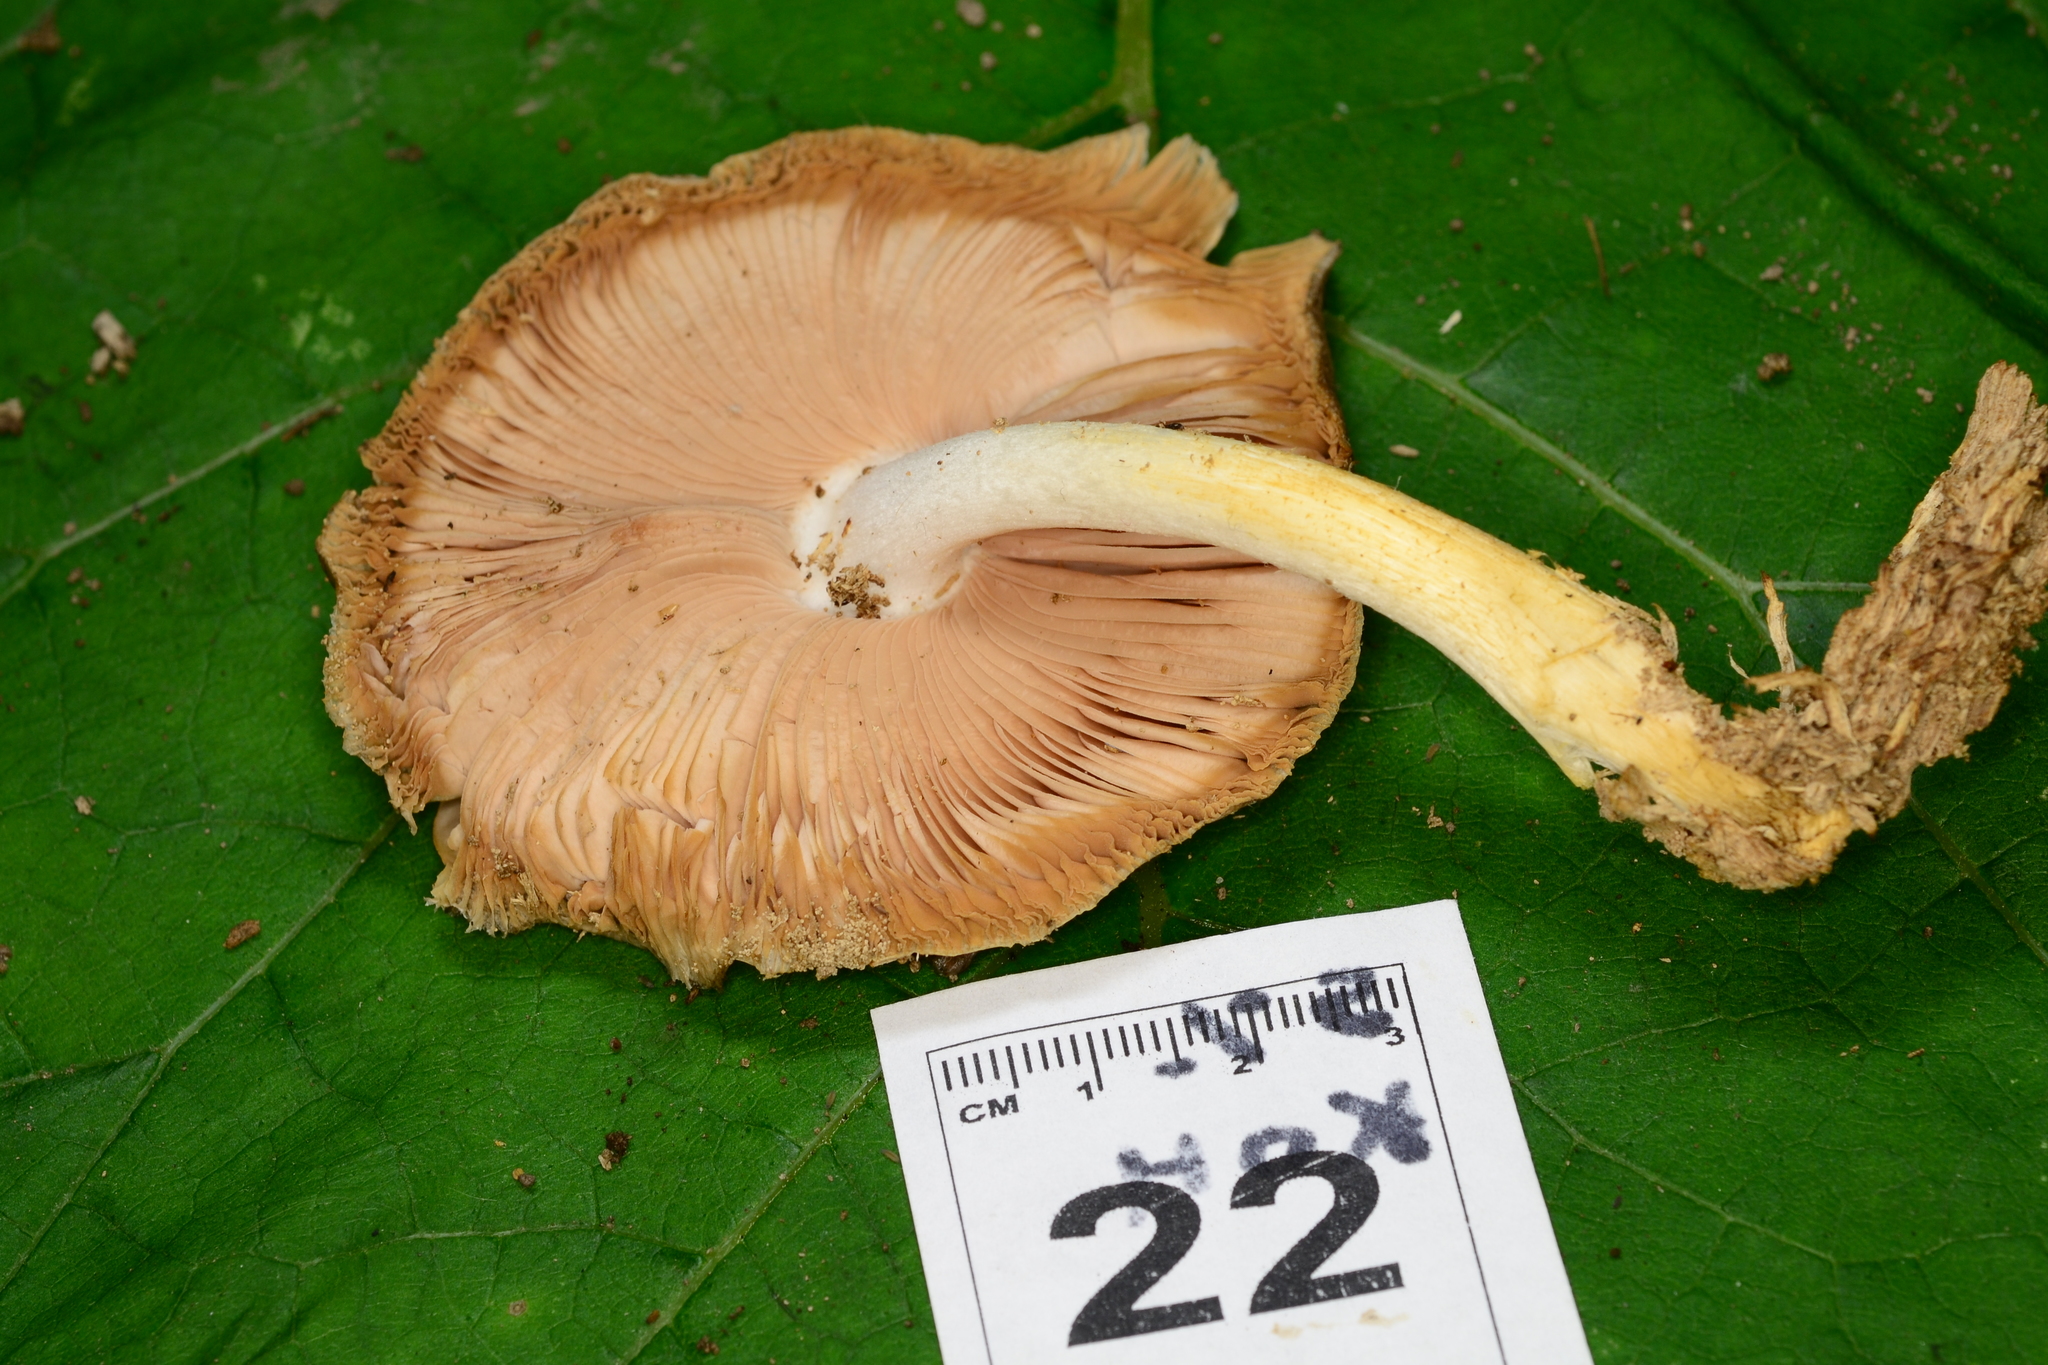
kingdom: Fungi
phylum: Basidiomycota
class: Agaricomycetes
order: Agaricales
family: Pluteaceae
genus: Pluteus
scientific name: Pluteus cervinus
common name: Deer shield
